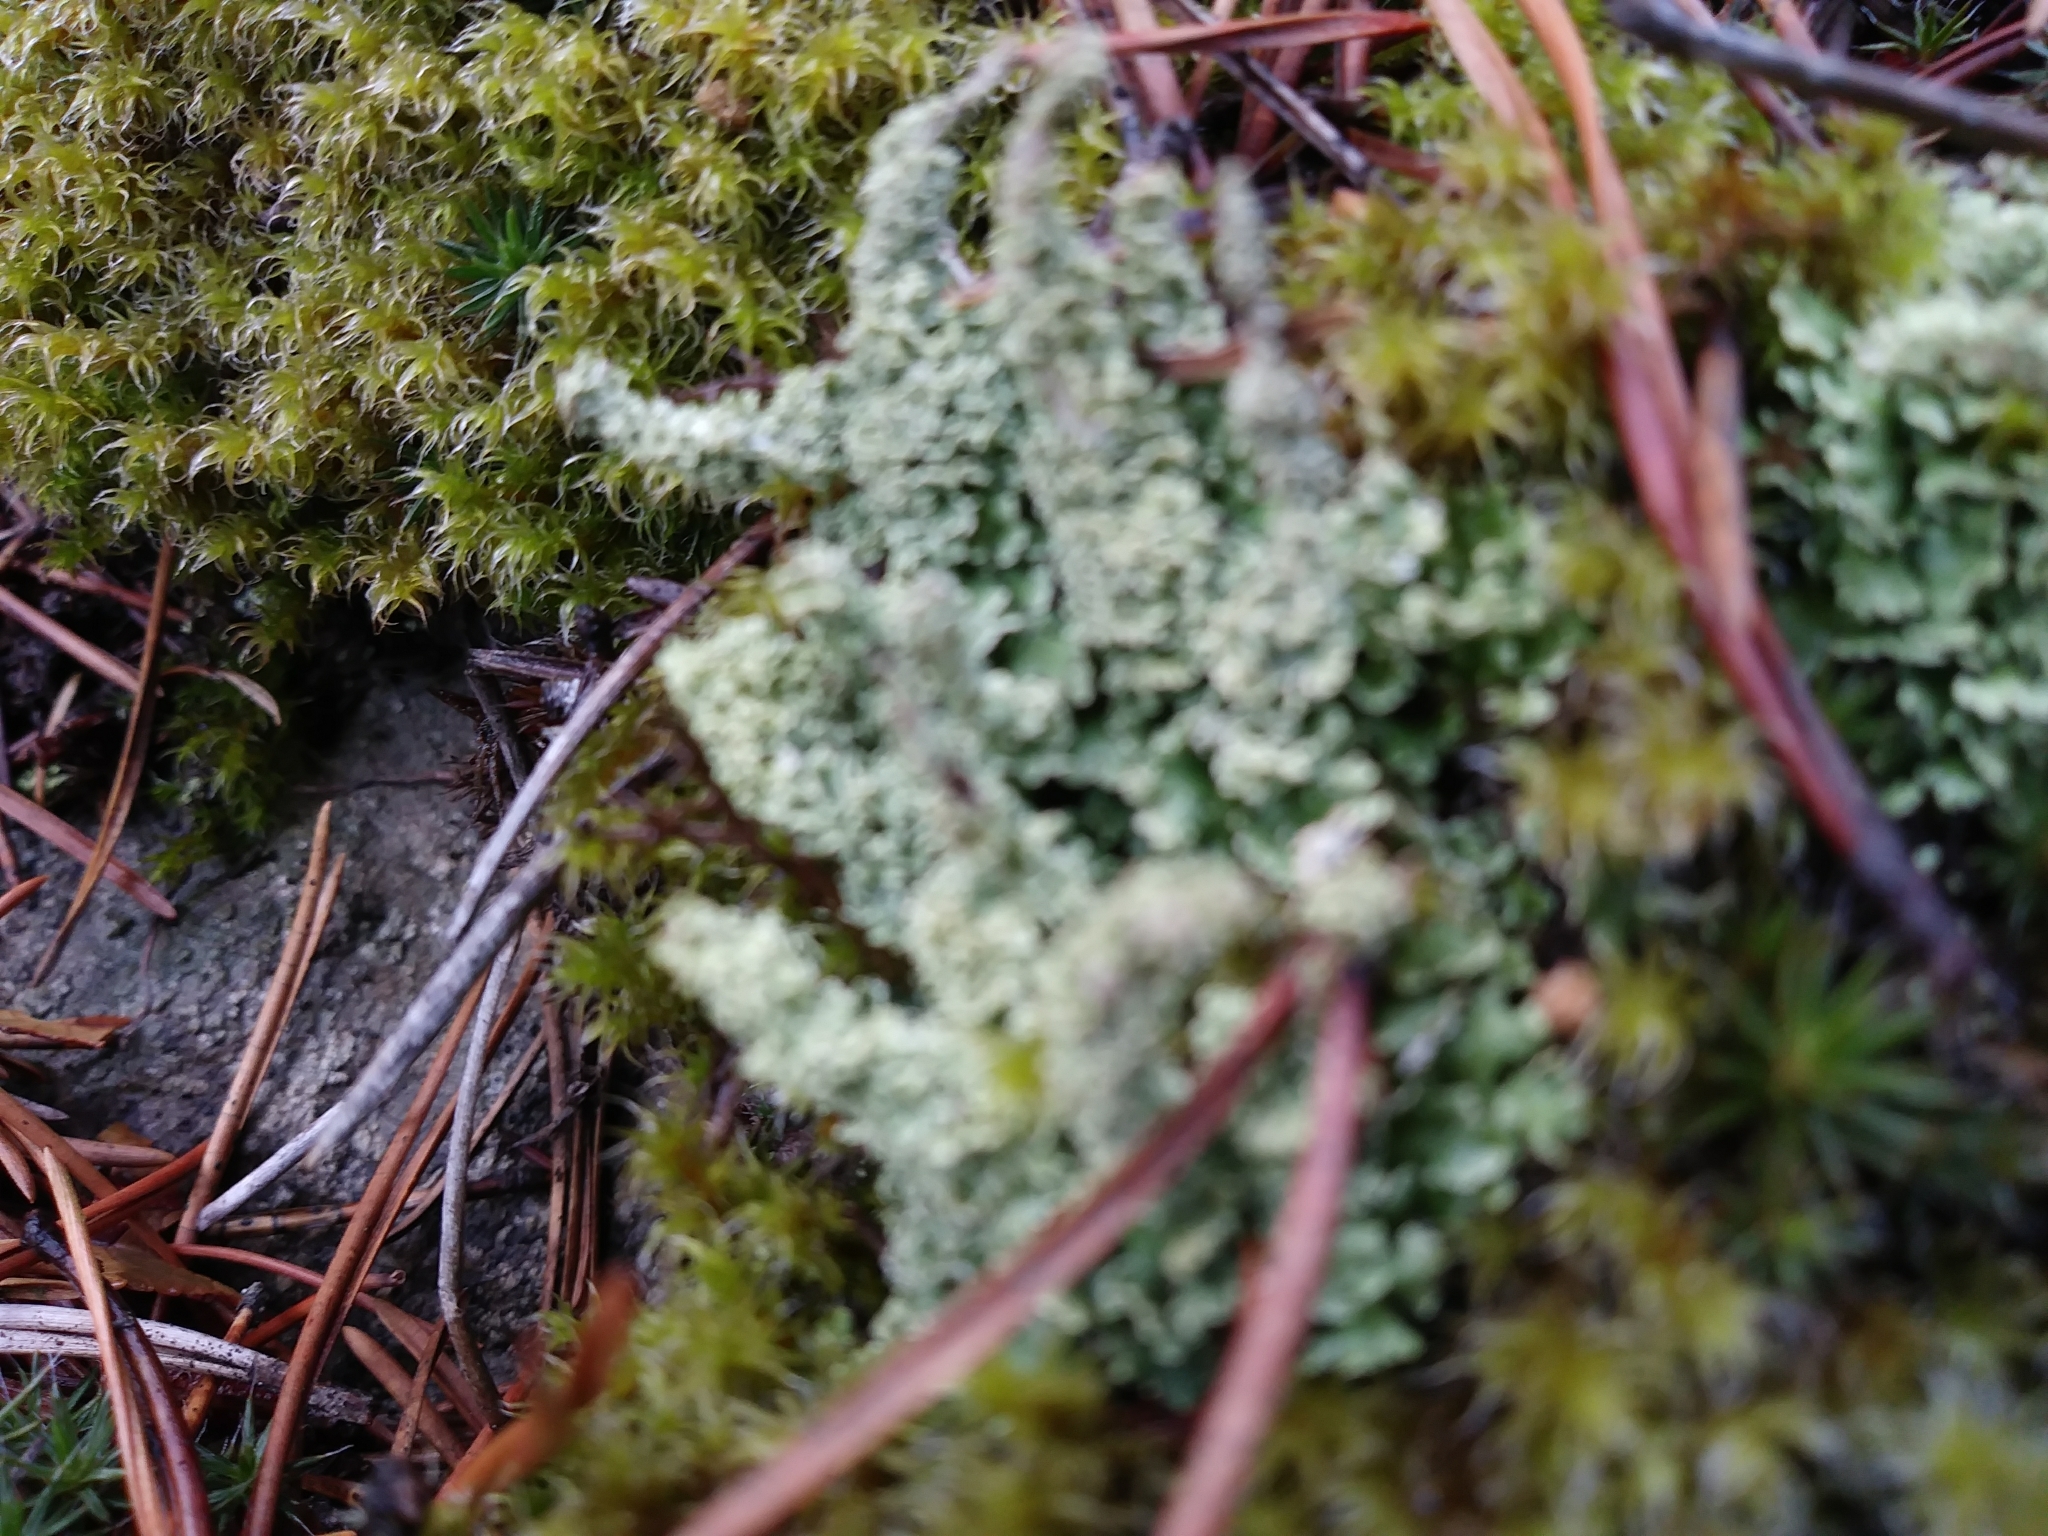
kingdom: Fungi
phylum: Ascomycota
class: Lecanoromycetes
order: Lecanorales
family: Cladoniaceae
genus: Cladonia
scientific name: Cladonia squamosa
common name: Dragon horn
